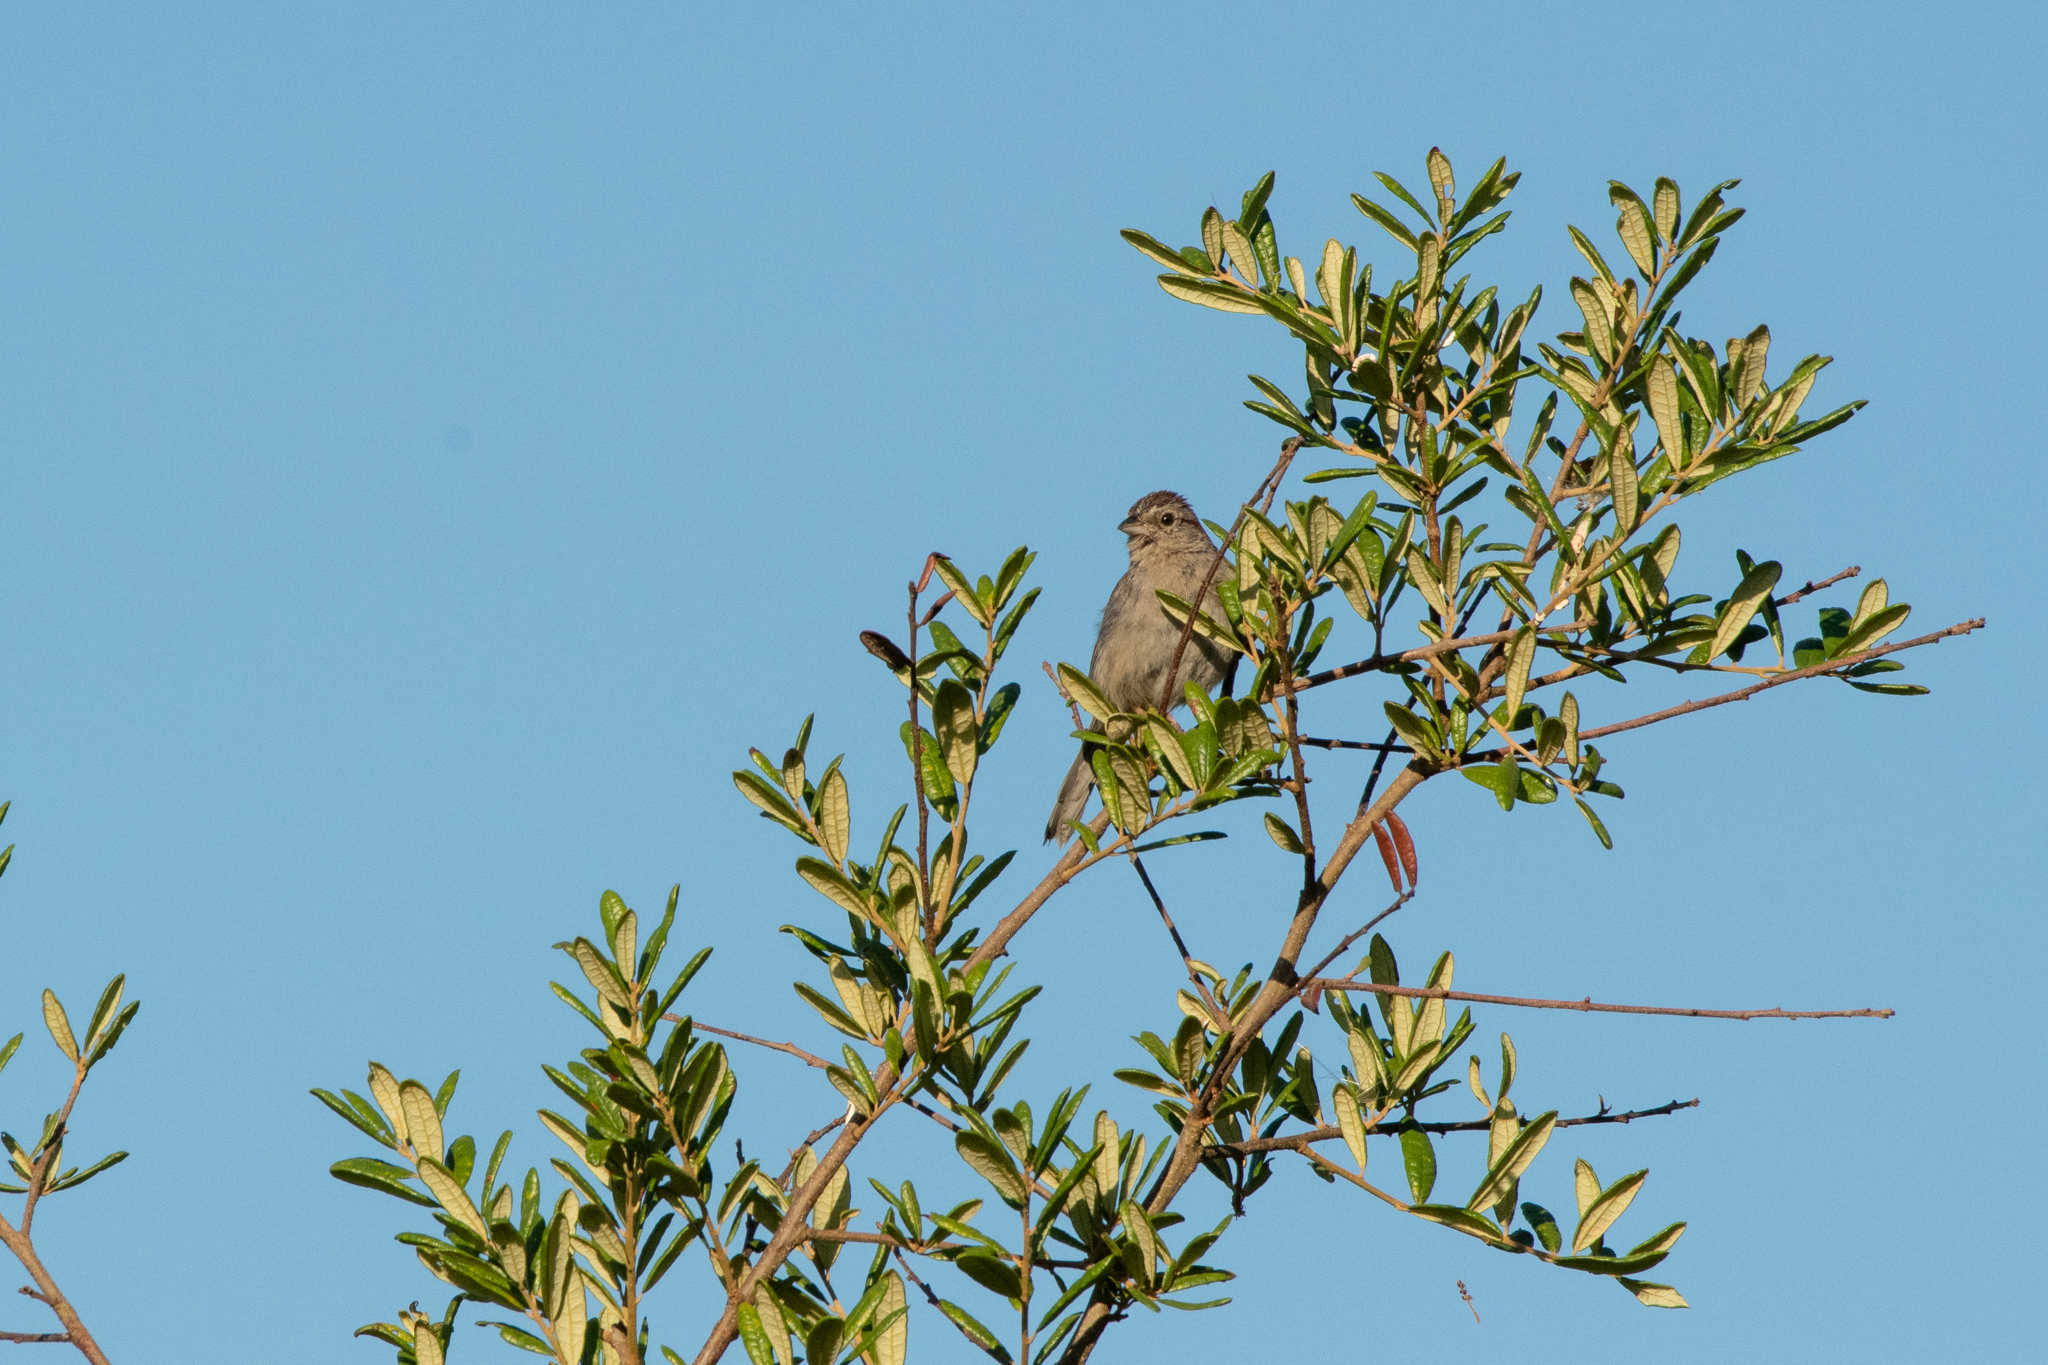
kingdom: Animalia
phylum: Chordata
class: Aves
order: Passeriformes
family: Passerellidae
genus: Peucaea
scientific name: Peucaea aestivalis
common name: Bachman's sparrow
